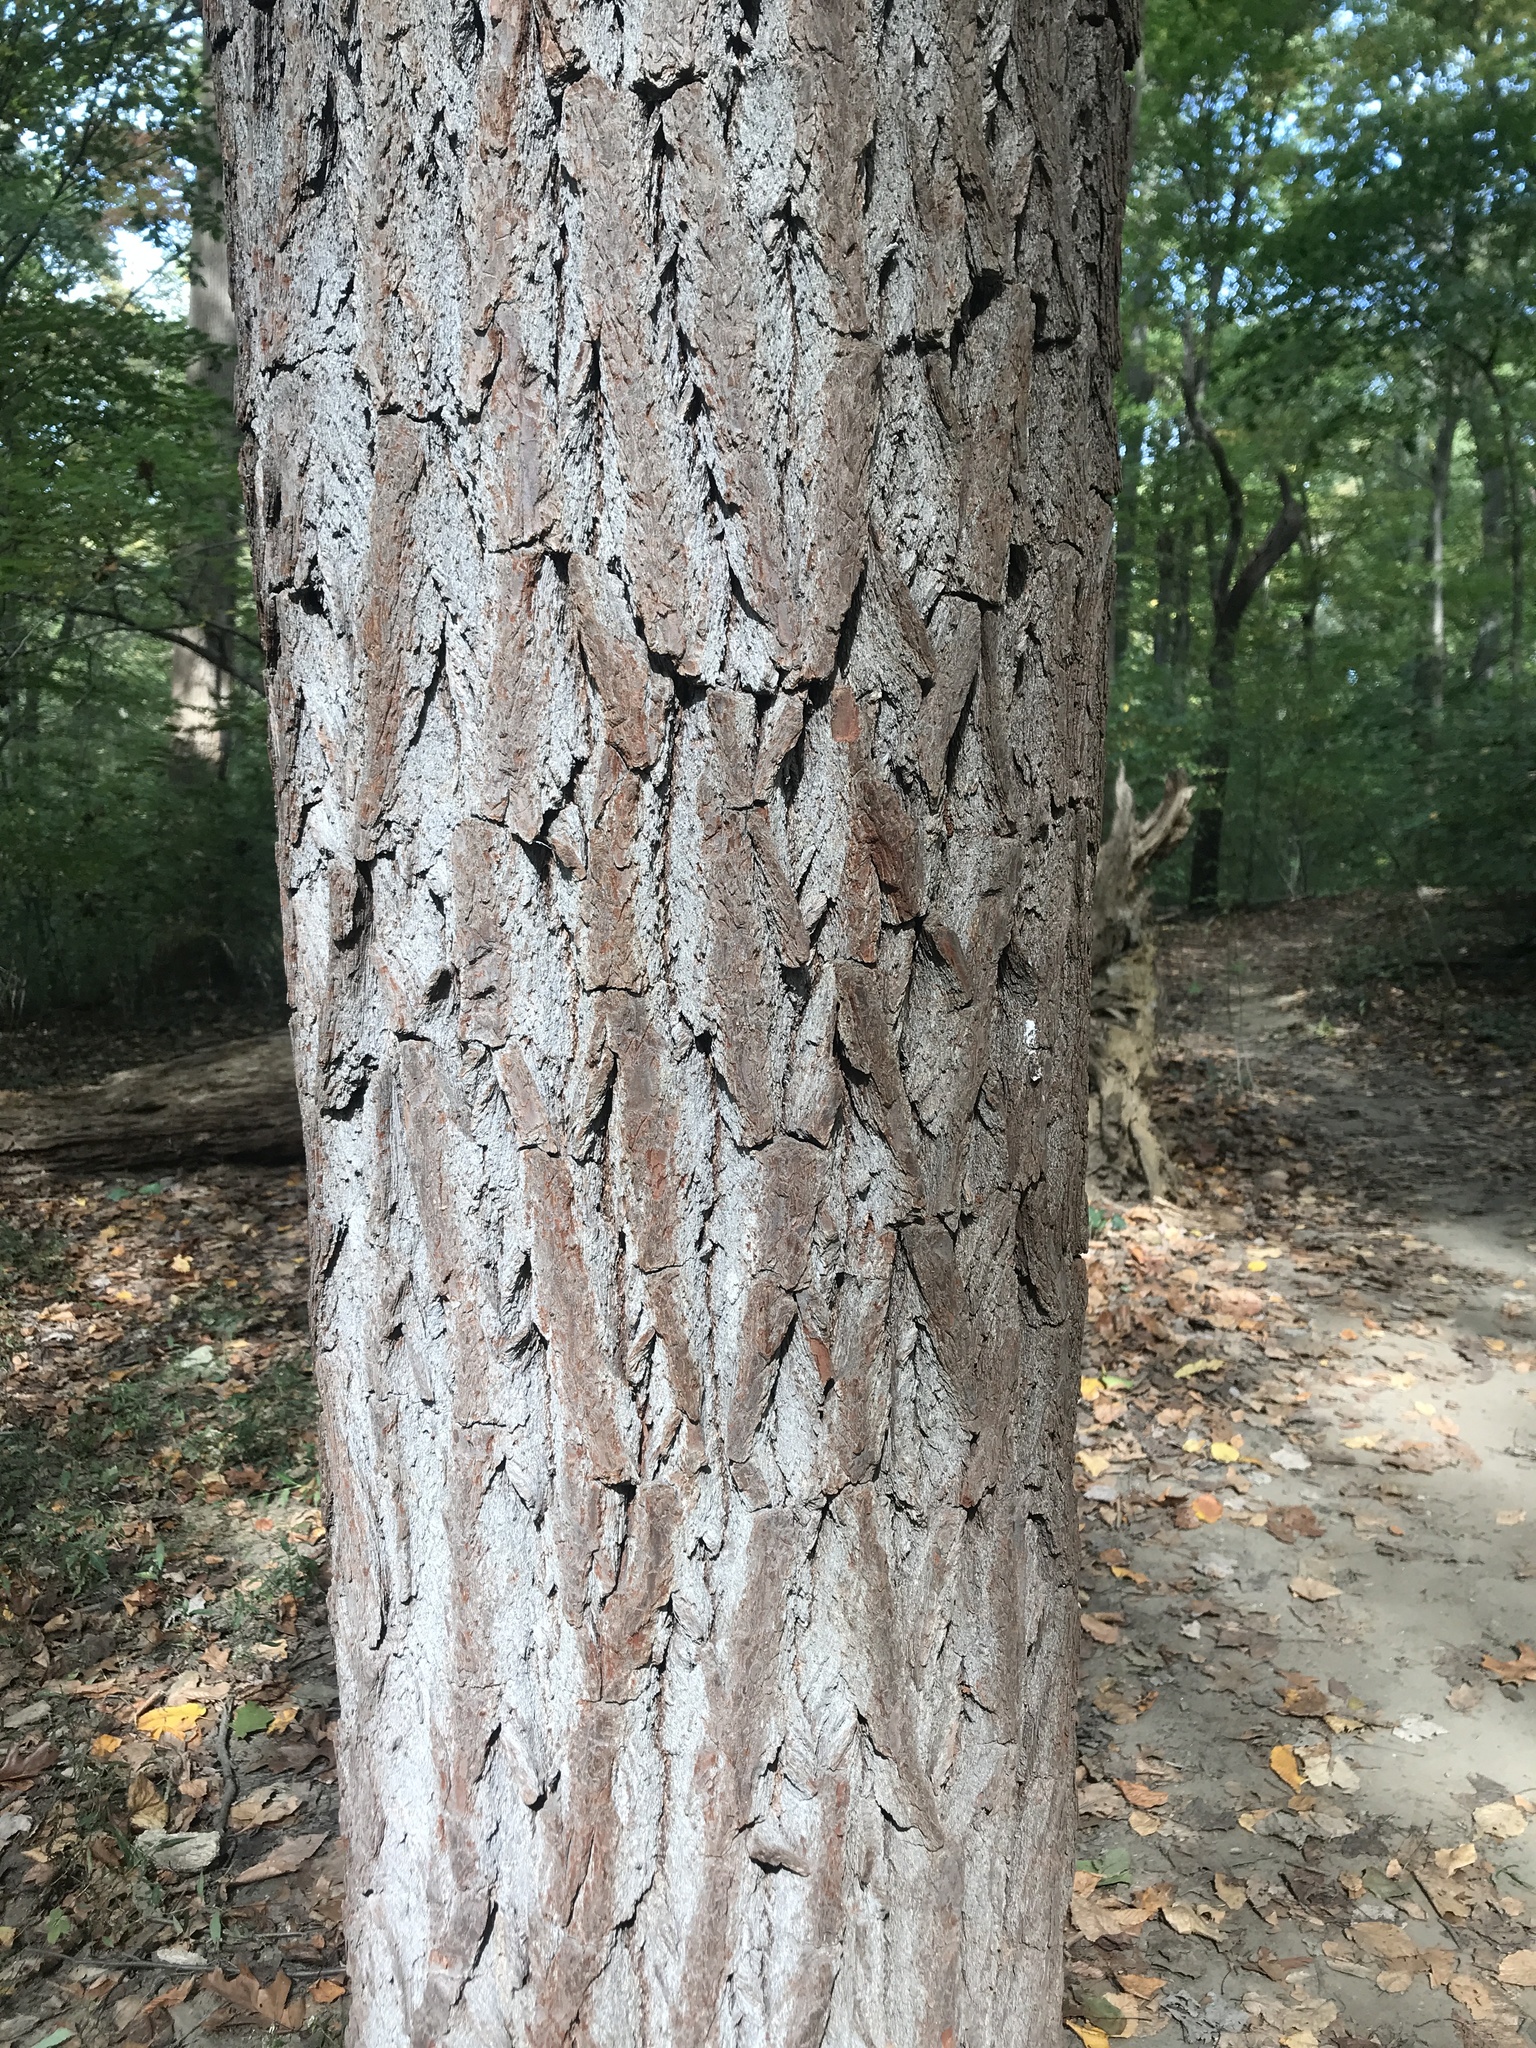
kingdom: Plantae
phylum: Tracheophyta
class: Magnoliopsida
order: Laurales
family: Lauraceae
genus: Sassafras
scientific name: Sassafras albidum
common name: Sassafras
